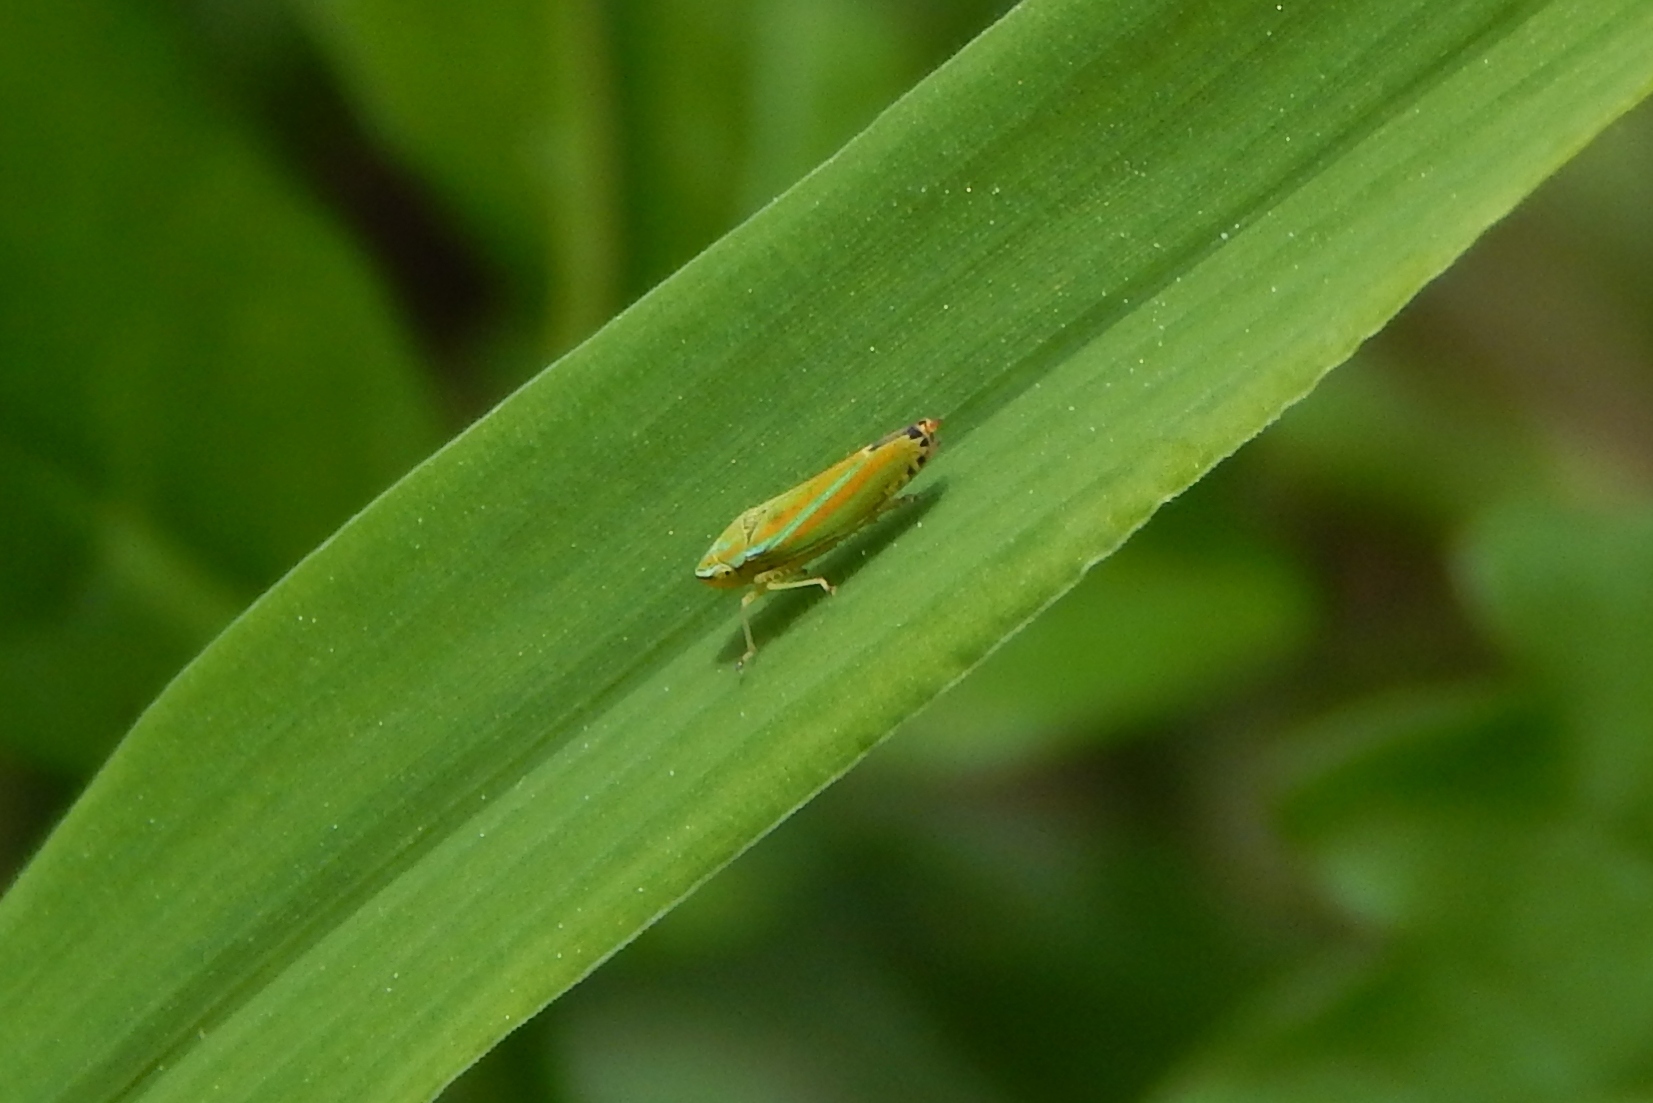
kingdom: Animalia
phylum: Arthropoda
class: Insecta
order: Hemiptera
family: Cicadellidae
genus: Graphocephala
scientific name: Graphocephala versuta
